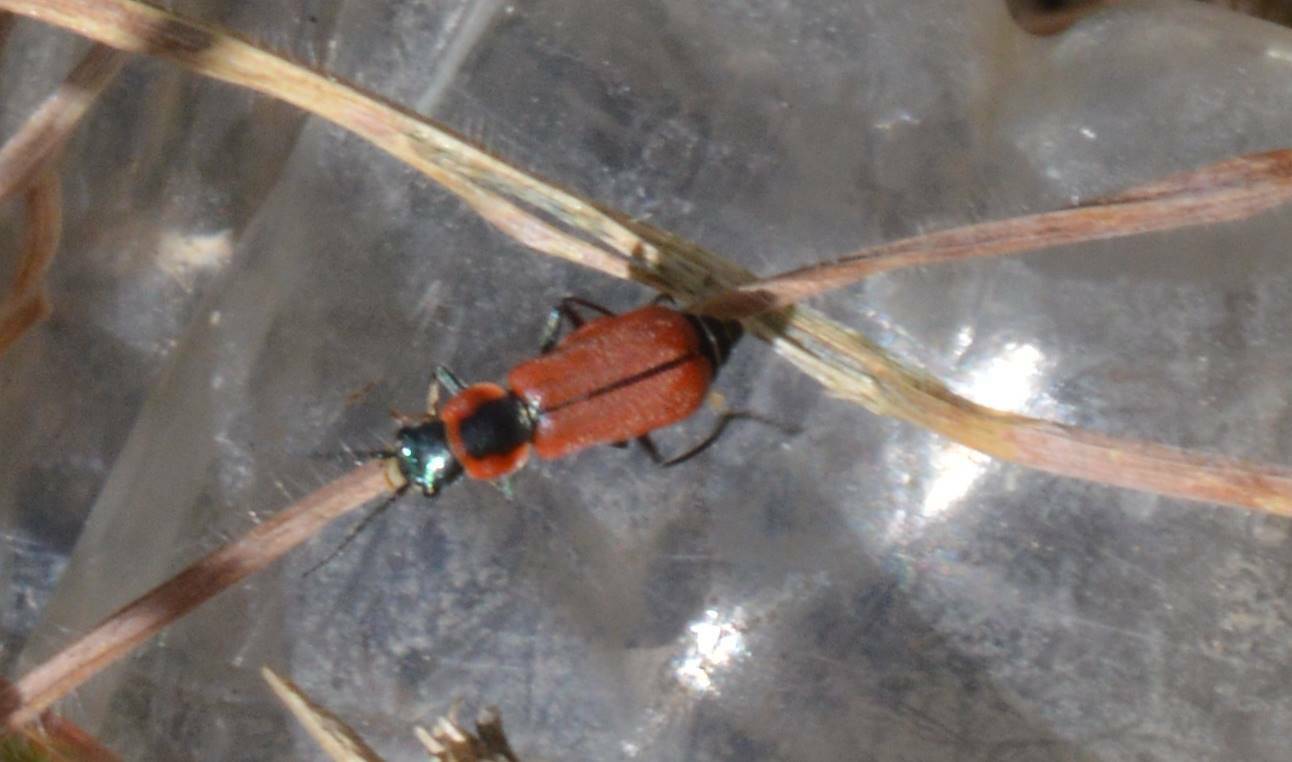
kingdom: Animalia
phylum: Arthropoda
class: Insecta
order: Coleoptera
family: Malachiidae
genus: Clanoptilus
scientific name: Clanoptilus rufus
